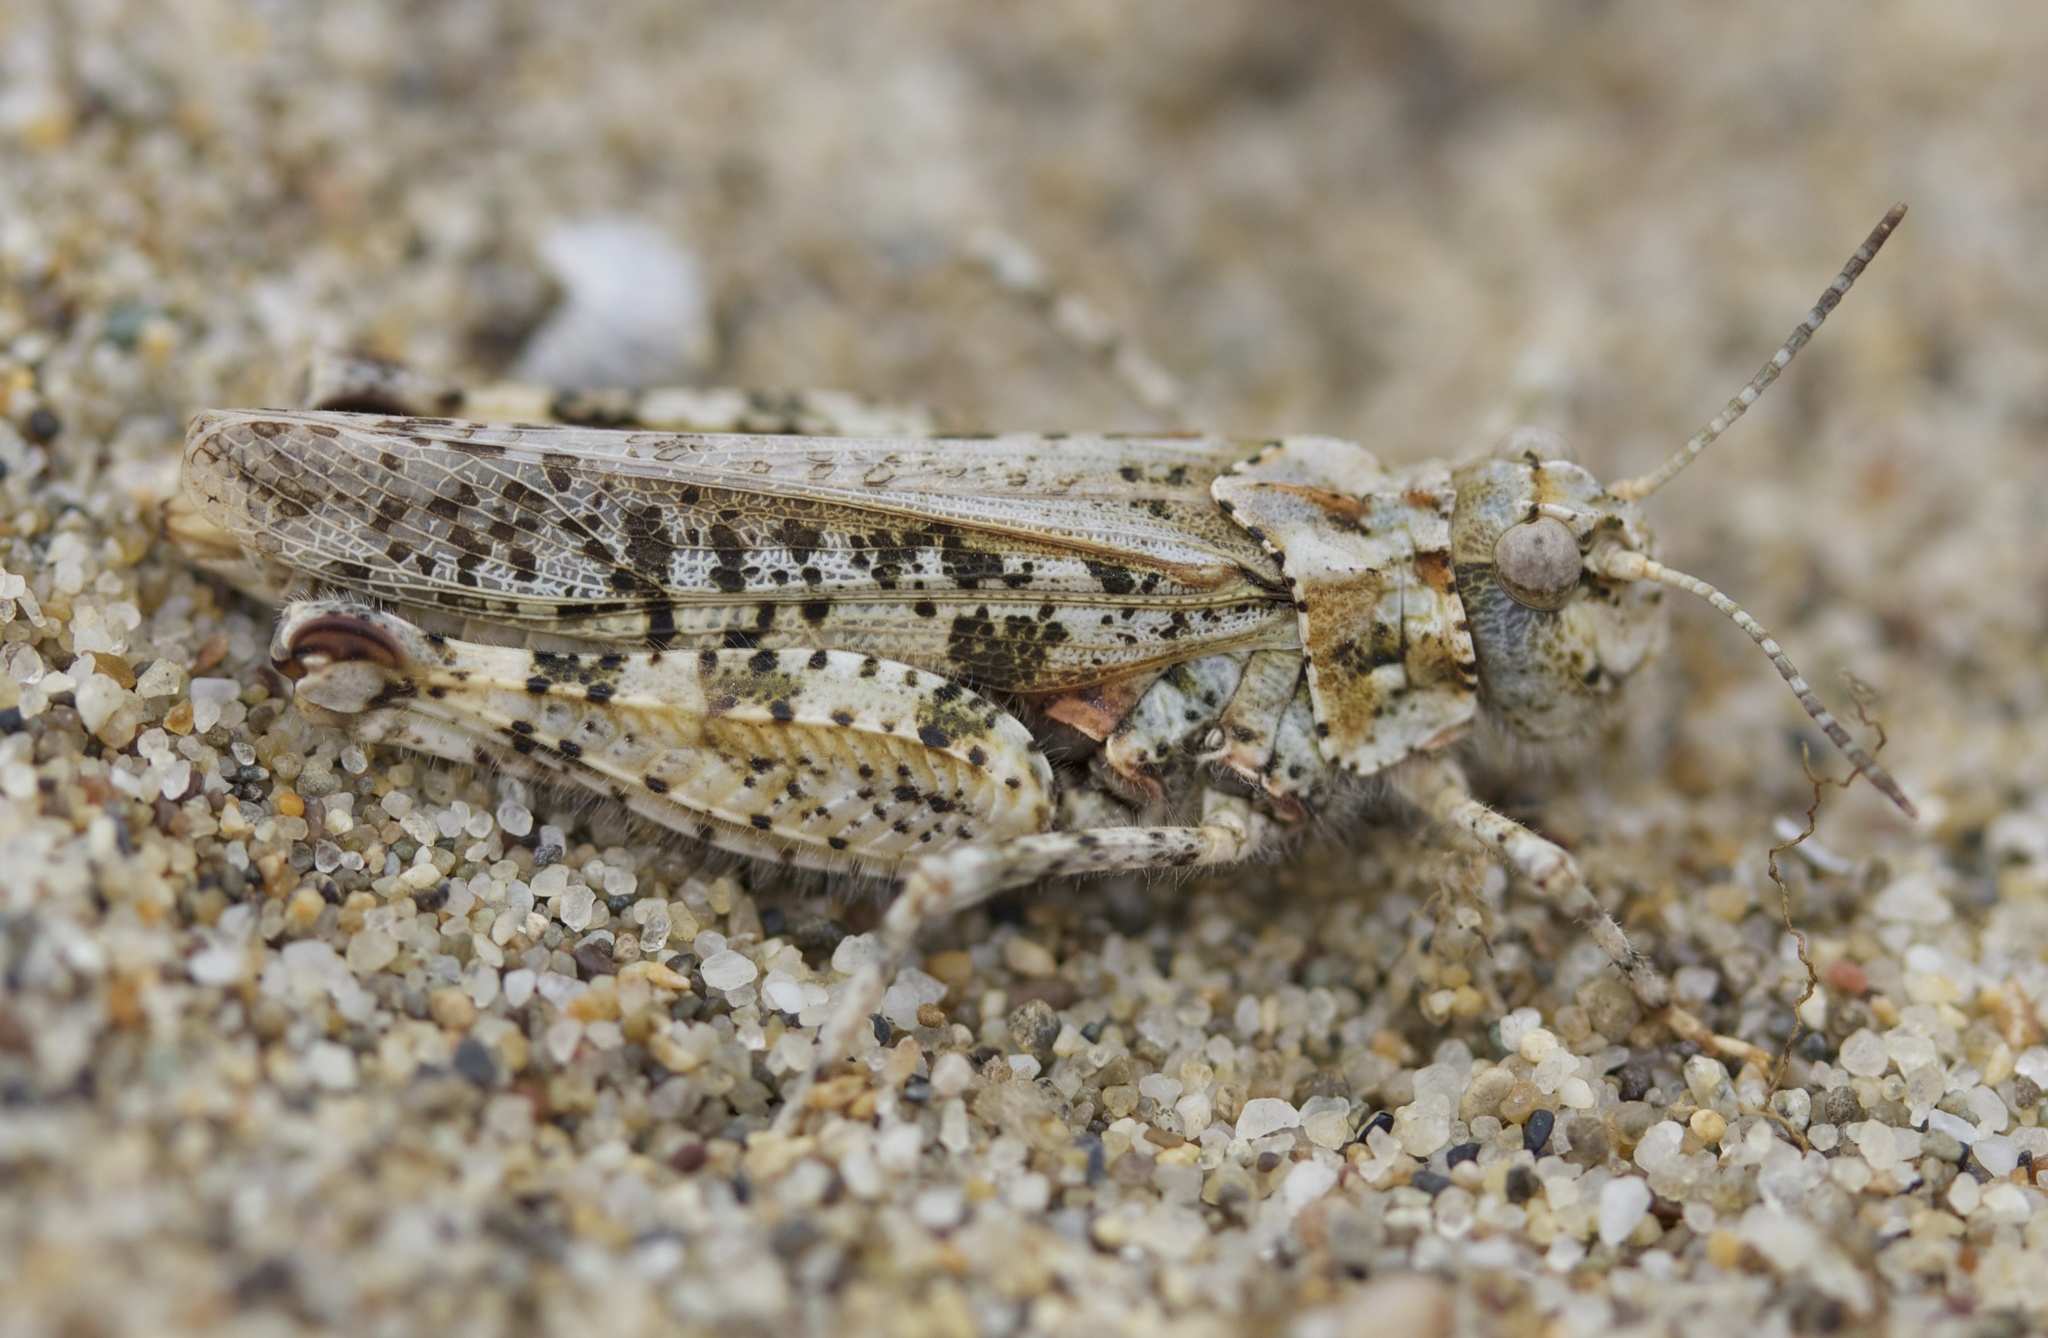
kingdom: Animalia
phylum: Arthropoda
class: Insecta
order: Orthoptera
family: Acrididae
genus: Microtes
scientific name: Microtes occidentalis
